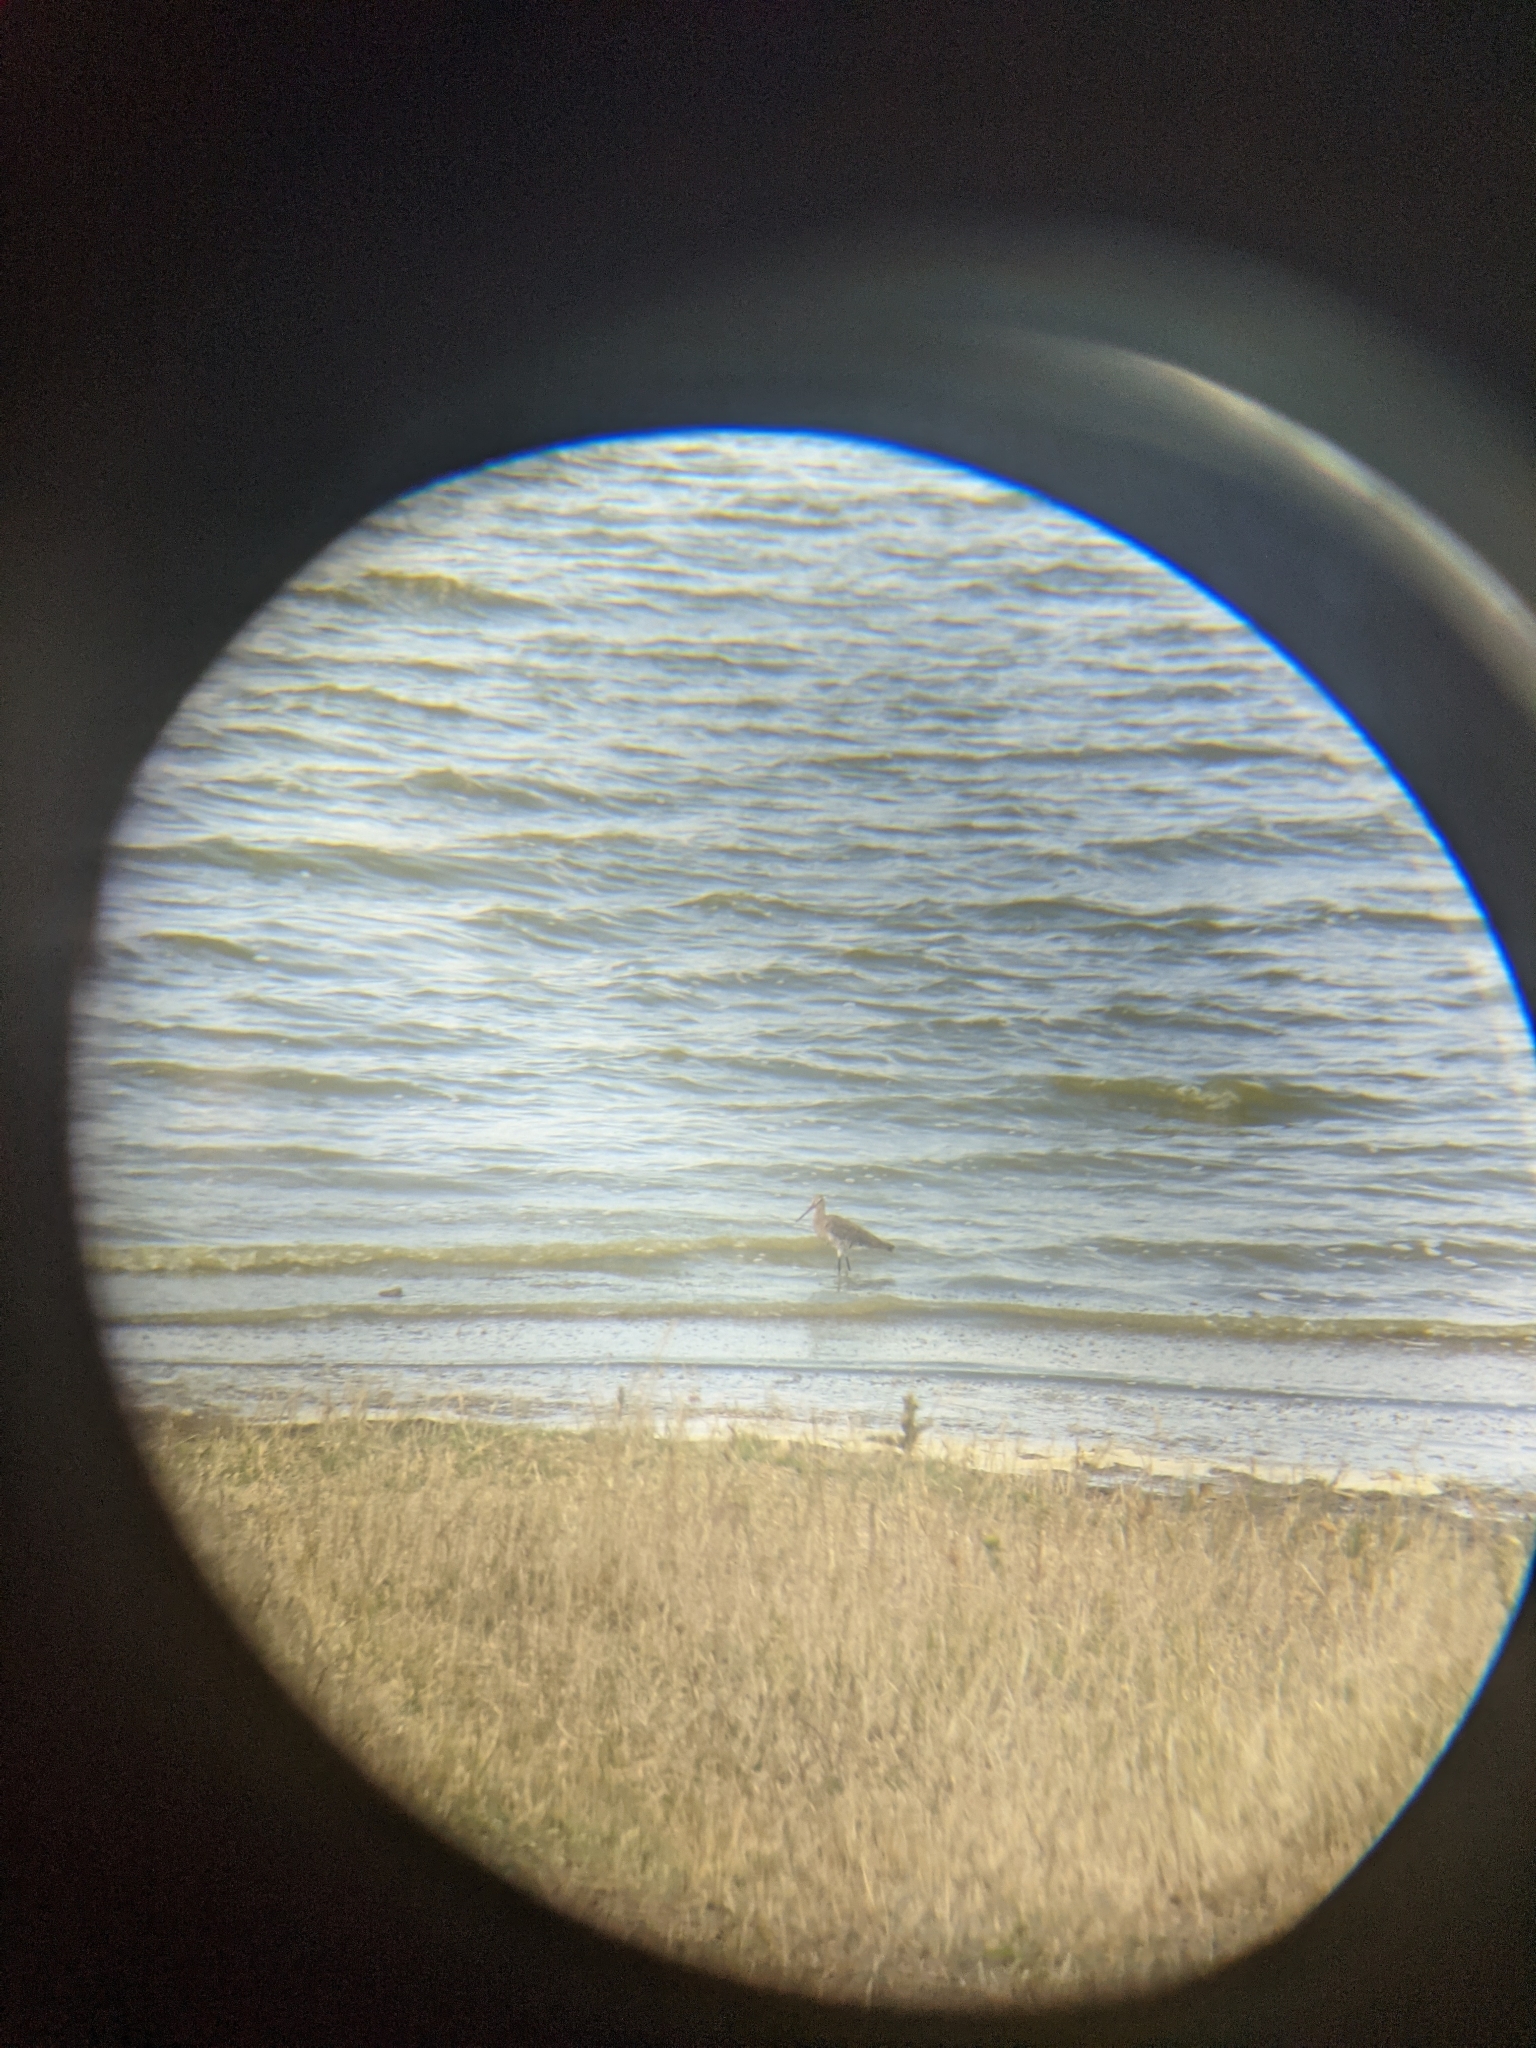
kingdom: Animalia
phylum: Chordata
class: Aves
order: Charadriiformes
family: Scolopacidae
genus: Limosa
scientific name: Limosa limosa
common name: Black-tailed godwit
